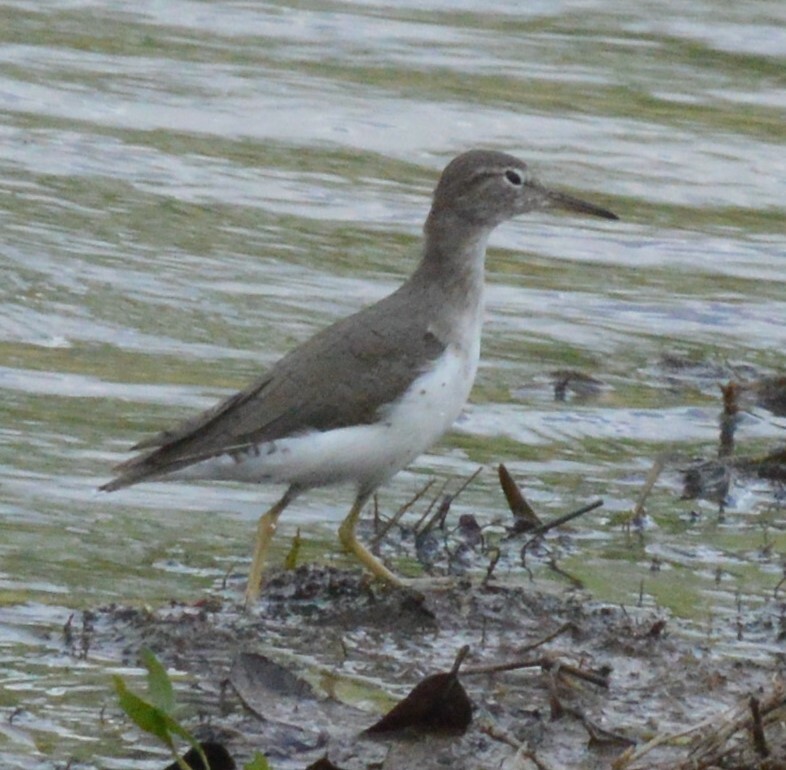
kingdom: Animalia
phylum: Chordata
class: Aves
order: Charadriiformes
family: Scolopacidae
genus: Actitis
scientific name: Actitis macularius
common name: Spotted sandpiper
